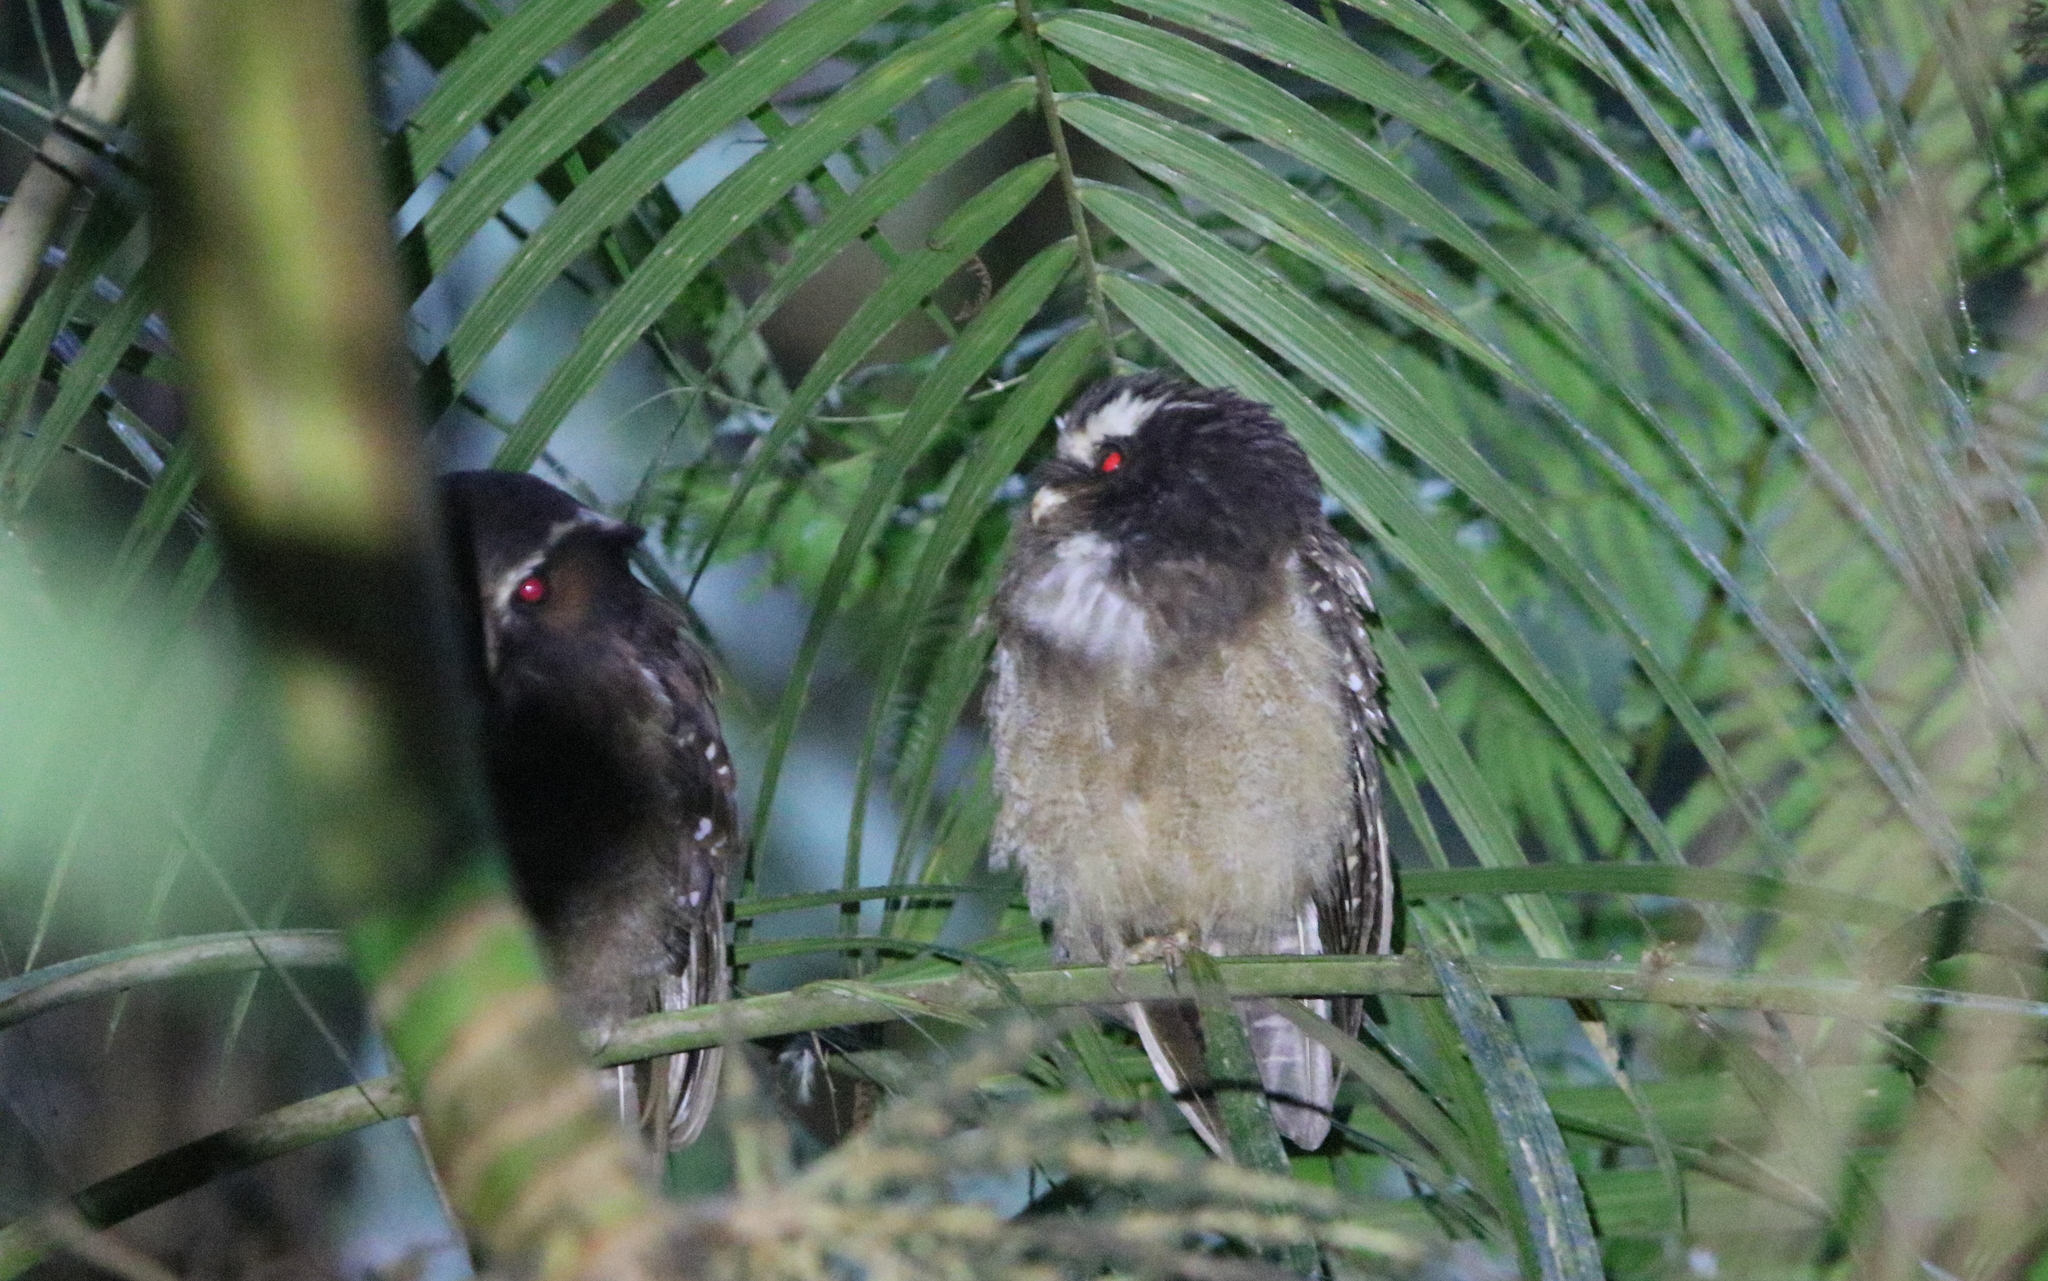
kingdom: Animalia
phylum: Chordata
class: Aves
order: Strigiformes
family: Strigidae
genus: Lophostrix
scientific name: Lophostrix cristata
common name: Crested owl
